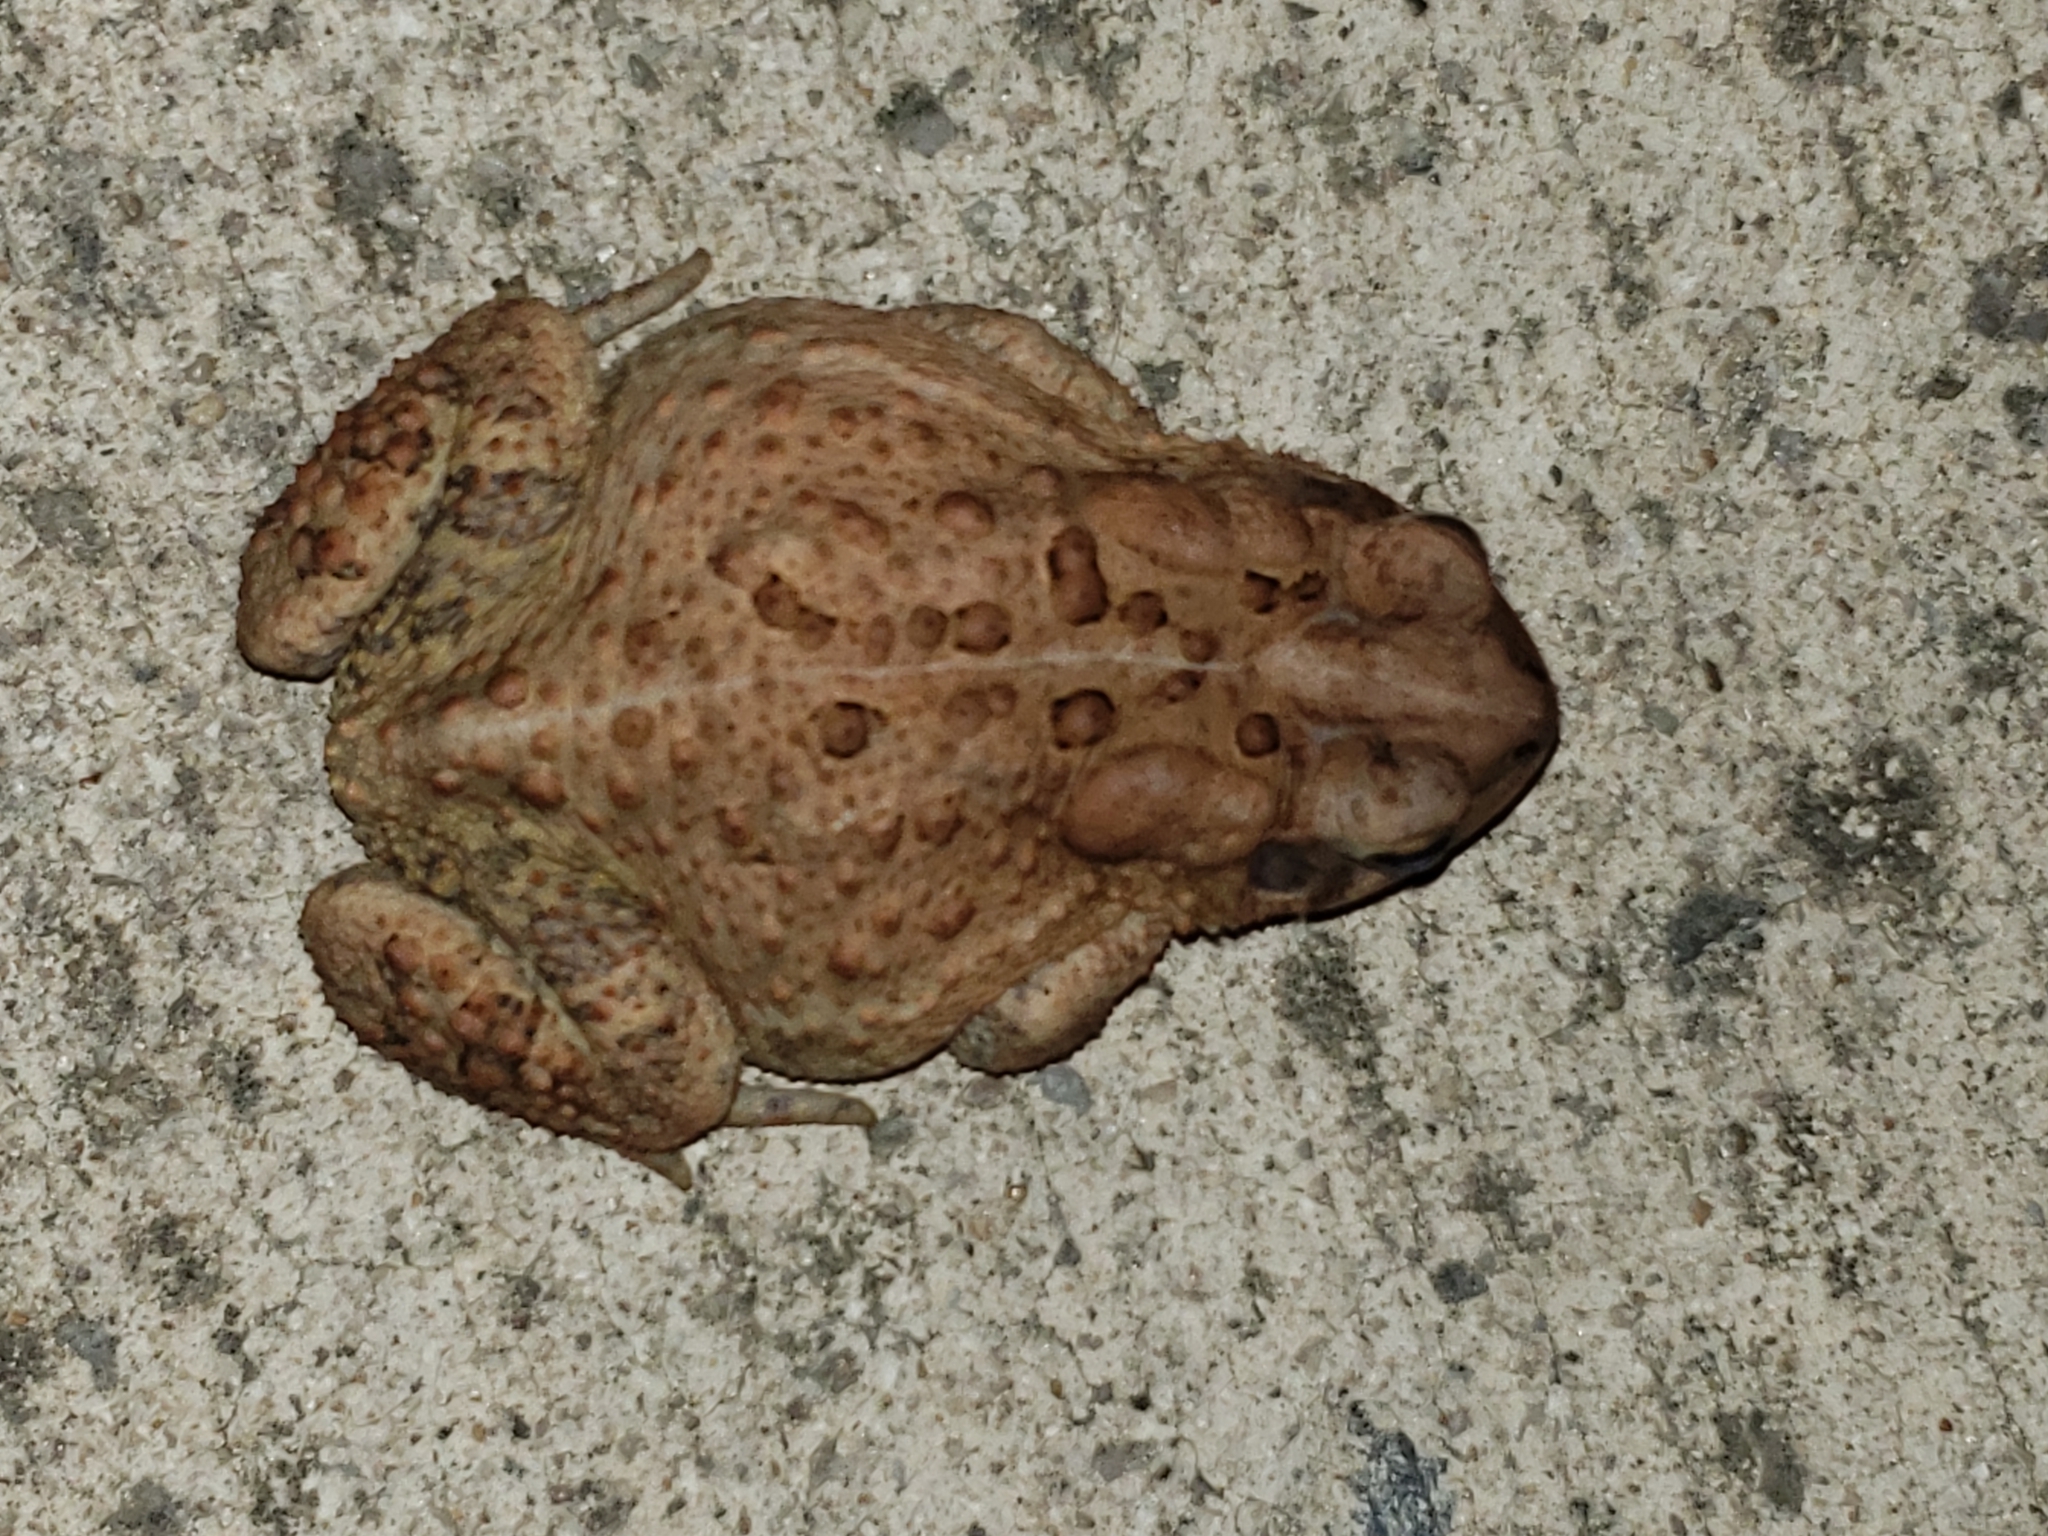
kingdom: Animalia
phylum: Chordata
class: Amphibia
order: Anura
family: Bufonidae
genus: Anaxyrus
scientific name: Anaxyrus americanus
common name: American toad
